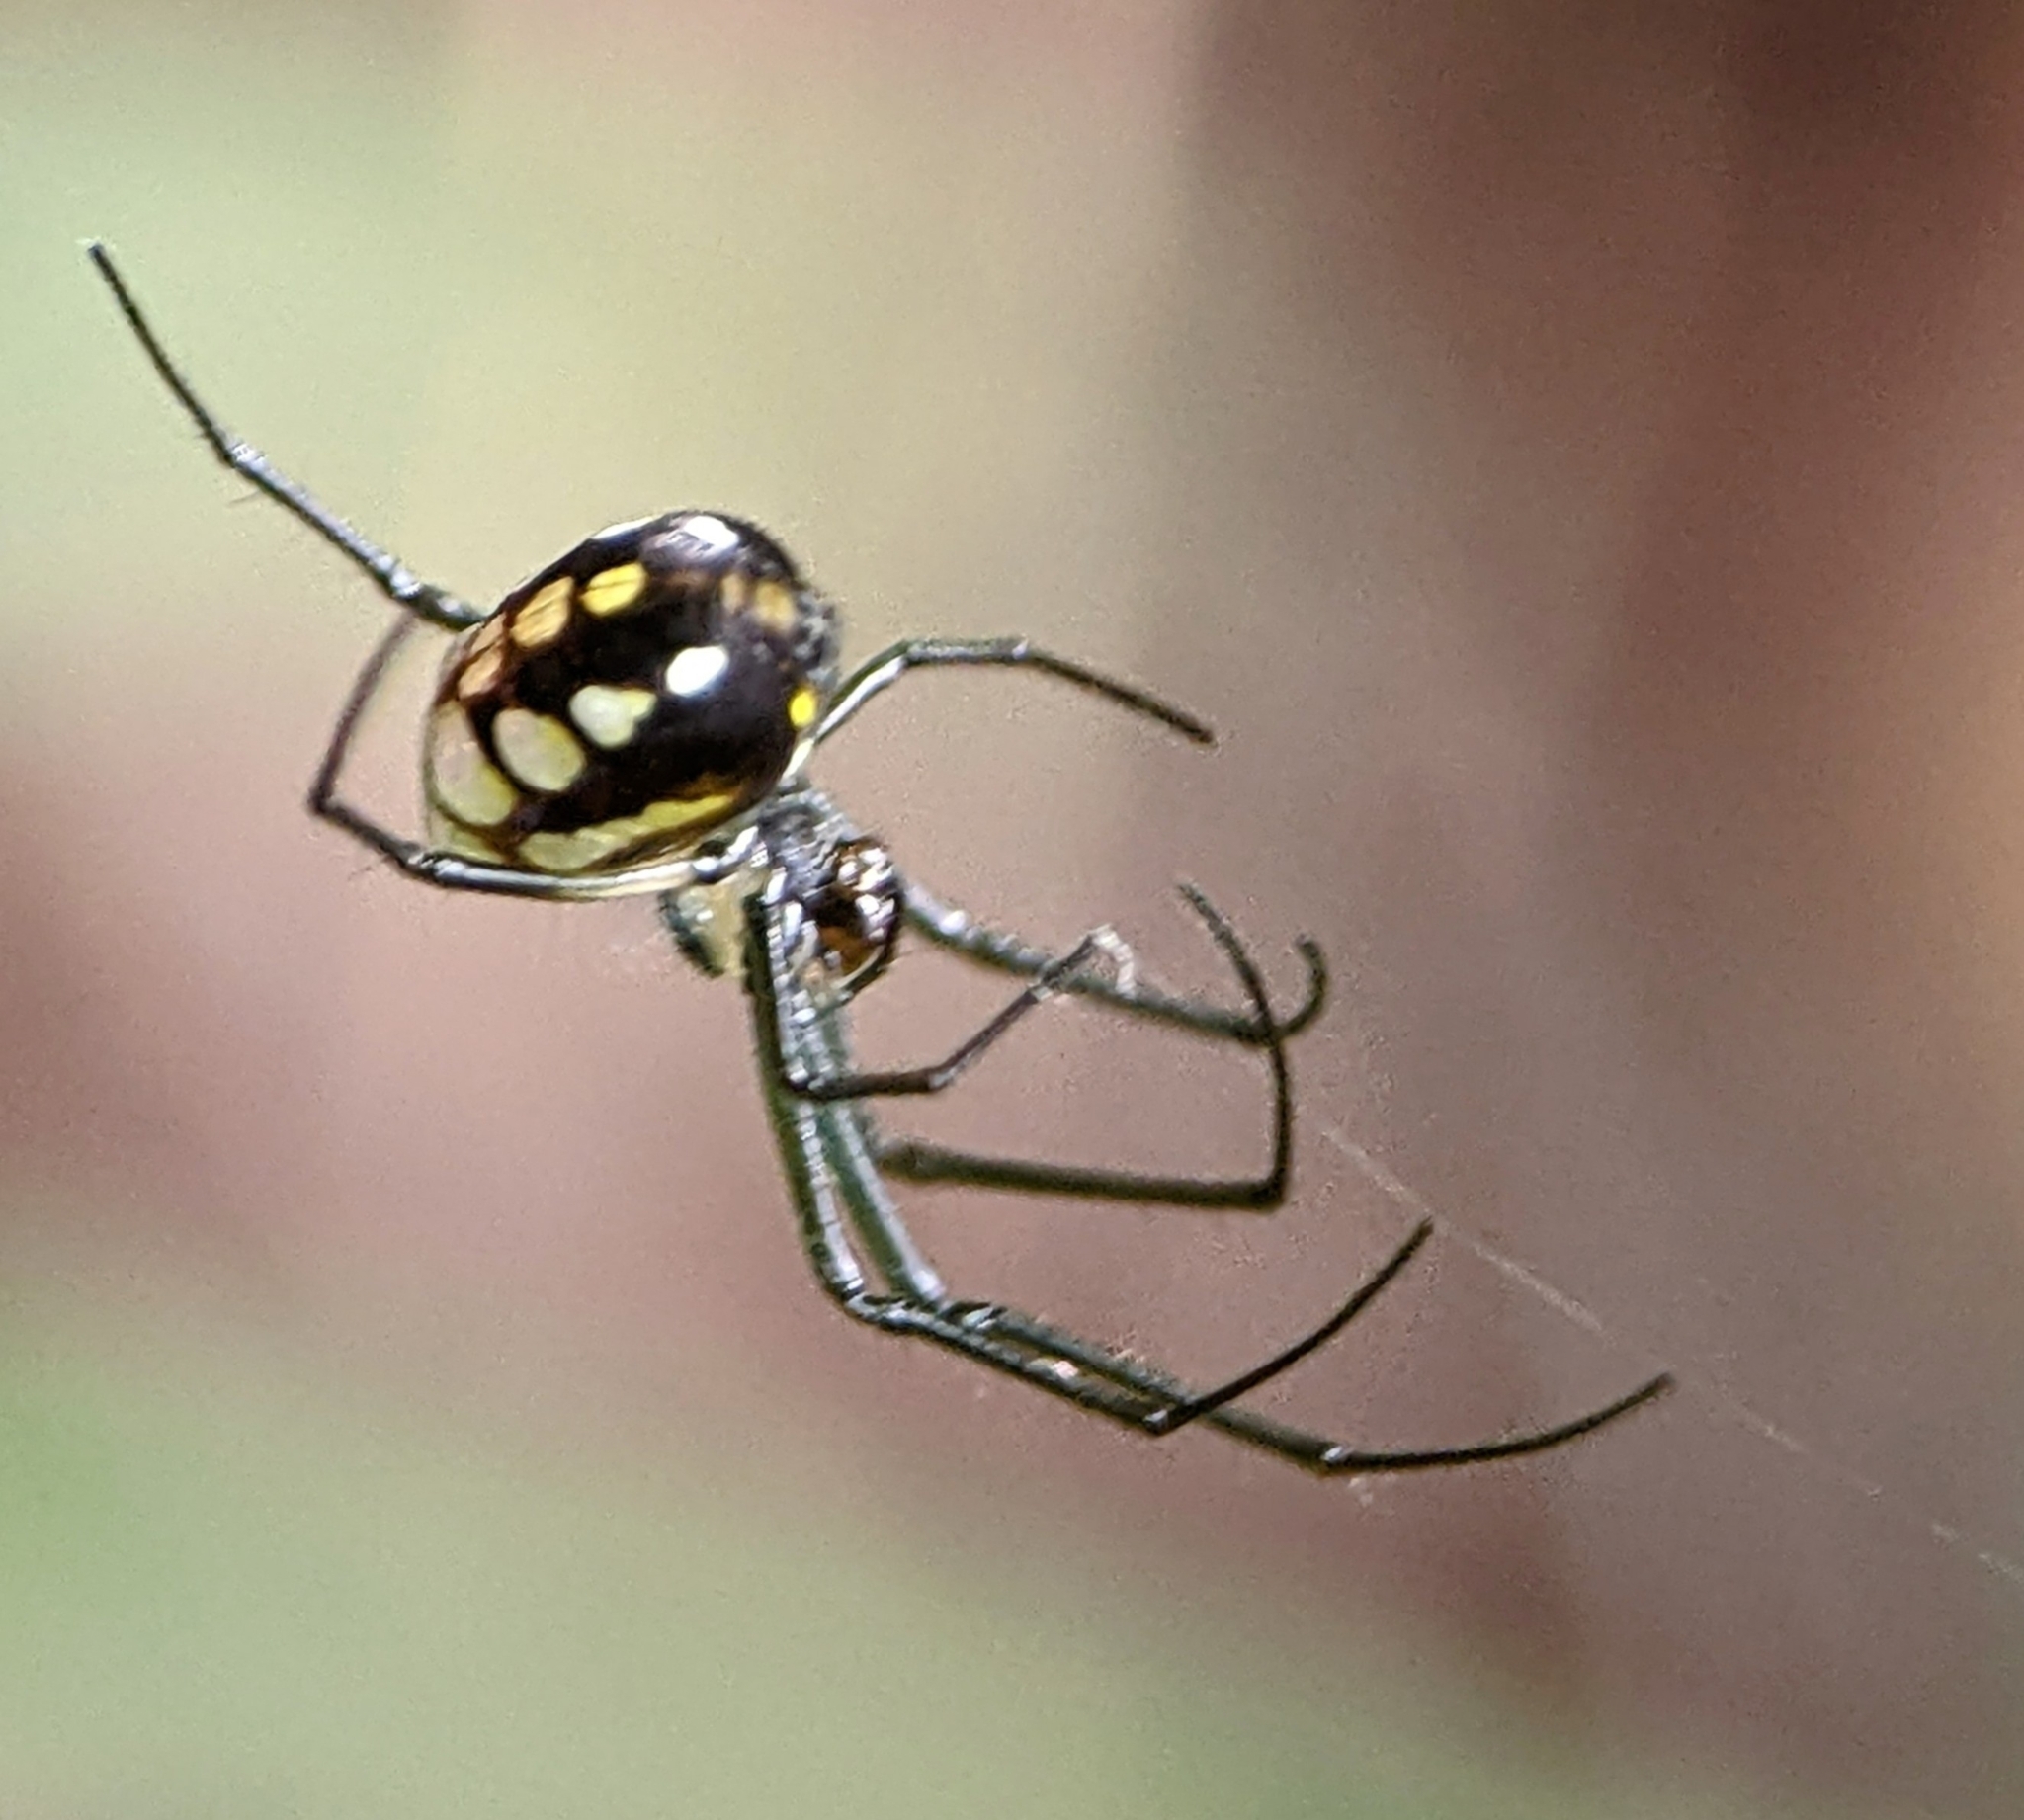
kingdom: Animalia
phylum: Arthropoda
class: Arachnida
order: Araneae
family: Tetragnathidae
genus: Leucauge
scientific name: Leucauge argentina
